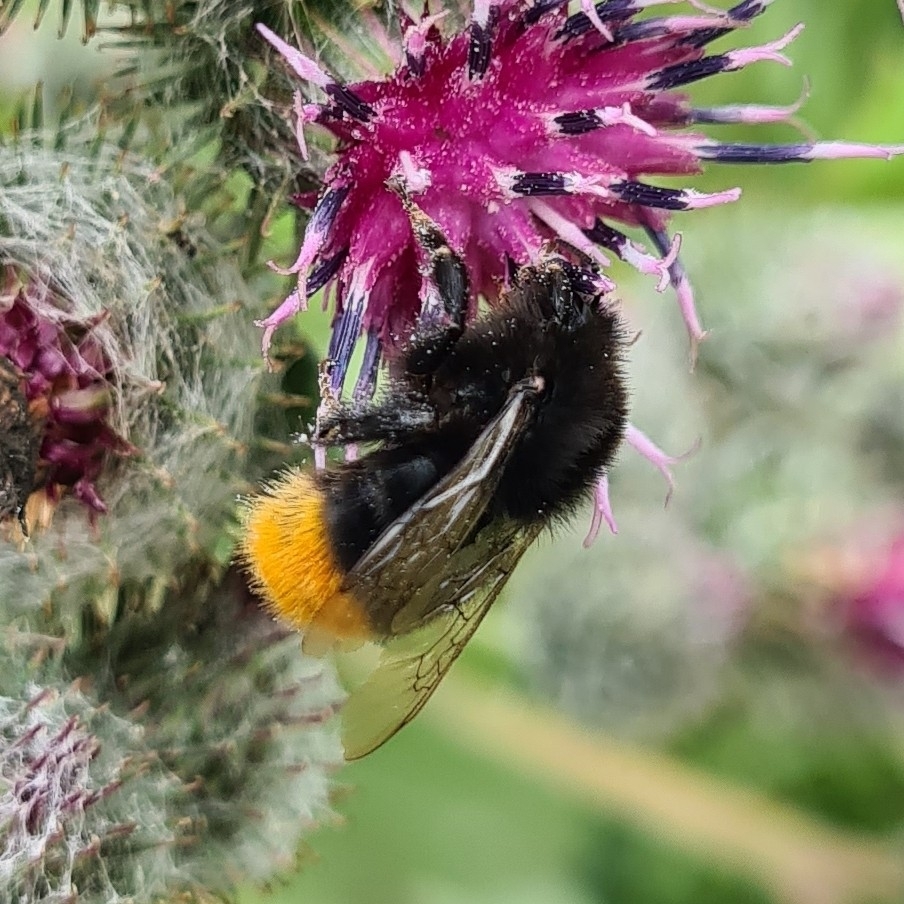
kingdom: Animalia
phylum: Arthropoda
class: Insecta
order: Hymenoptera
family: Apidae
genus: Bombus
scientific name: Bombus lapidarius
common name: Large red-tailed humble-bee
